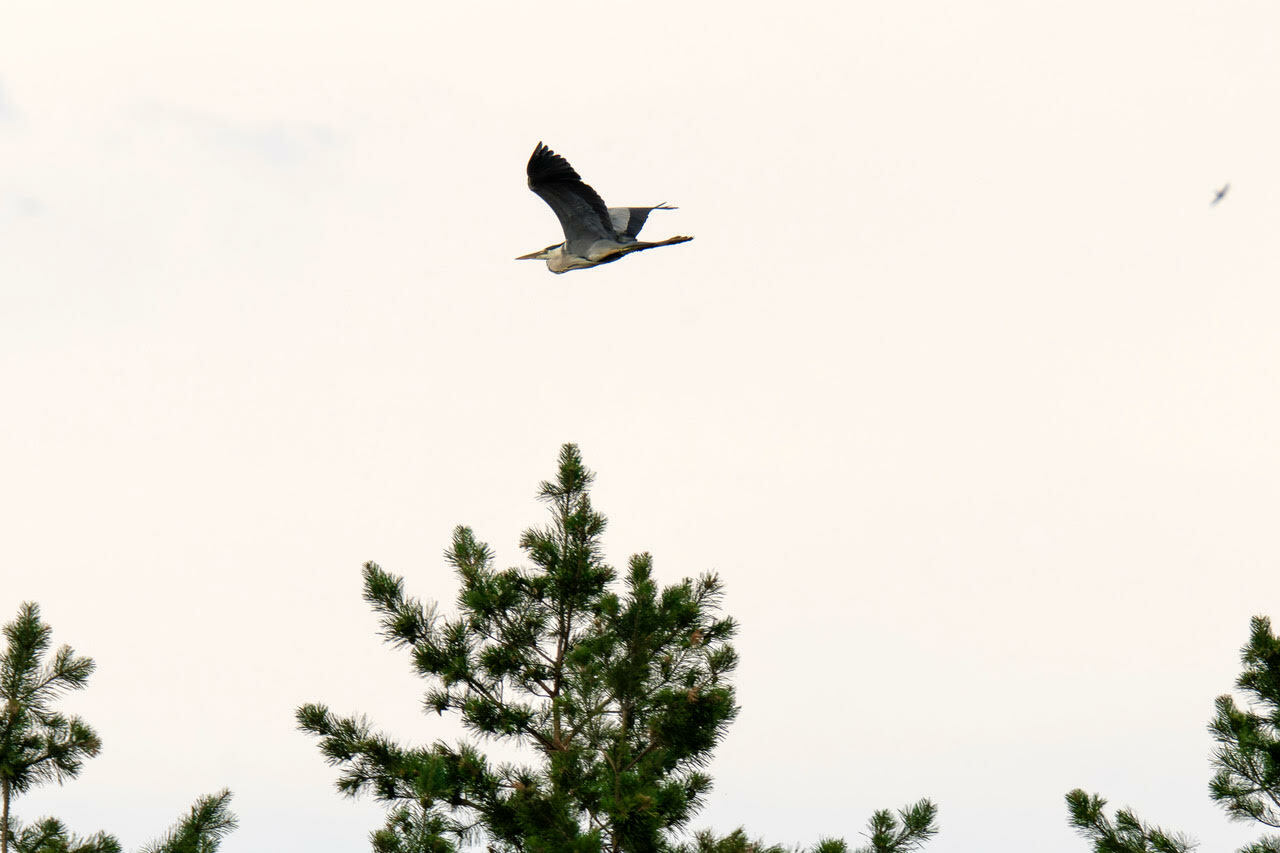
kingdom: Animalia
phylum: Chordata
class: Aves
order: Pelecaniformes
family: Ardeidae
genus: Ardea
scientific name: Ardea cinerea
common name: Grey heron
